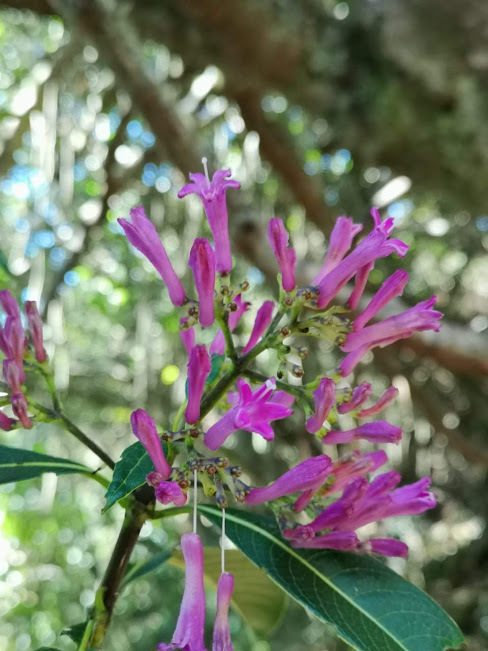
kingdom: Plantae
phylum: Tracheophyta
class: Magnoliopsida
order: Gentianales
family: Rubiaceae
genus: Palicourea
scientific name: Palicourea angustifolia
